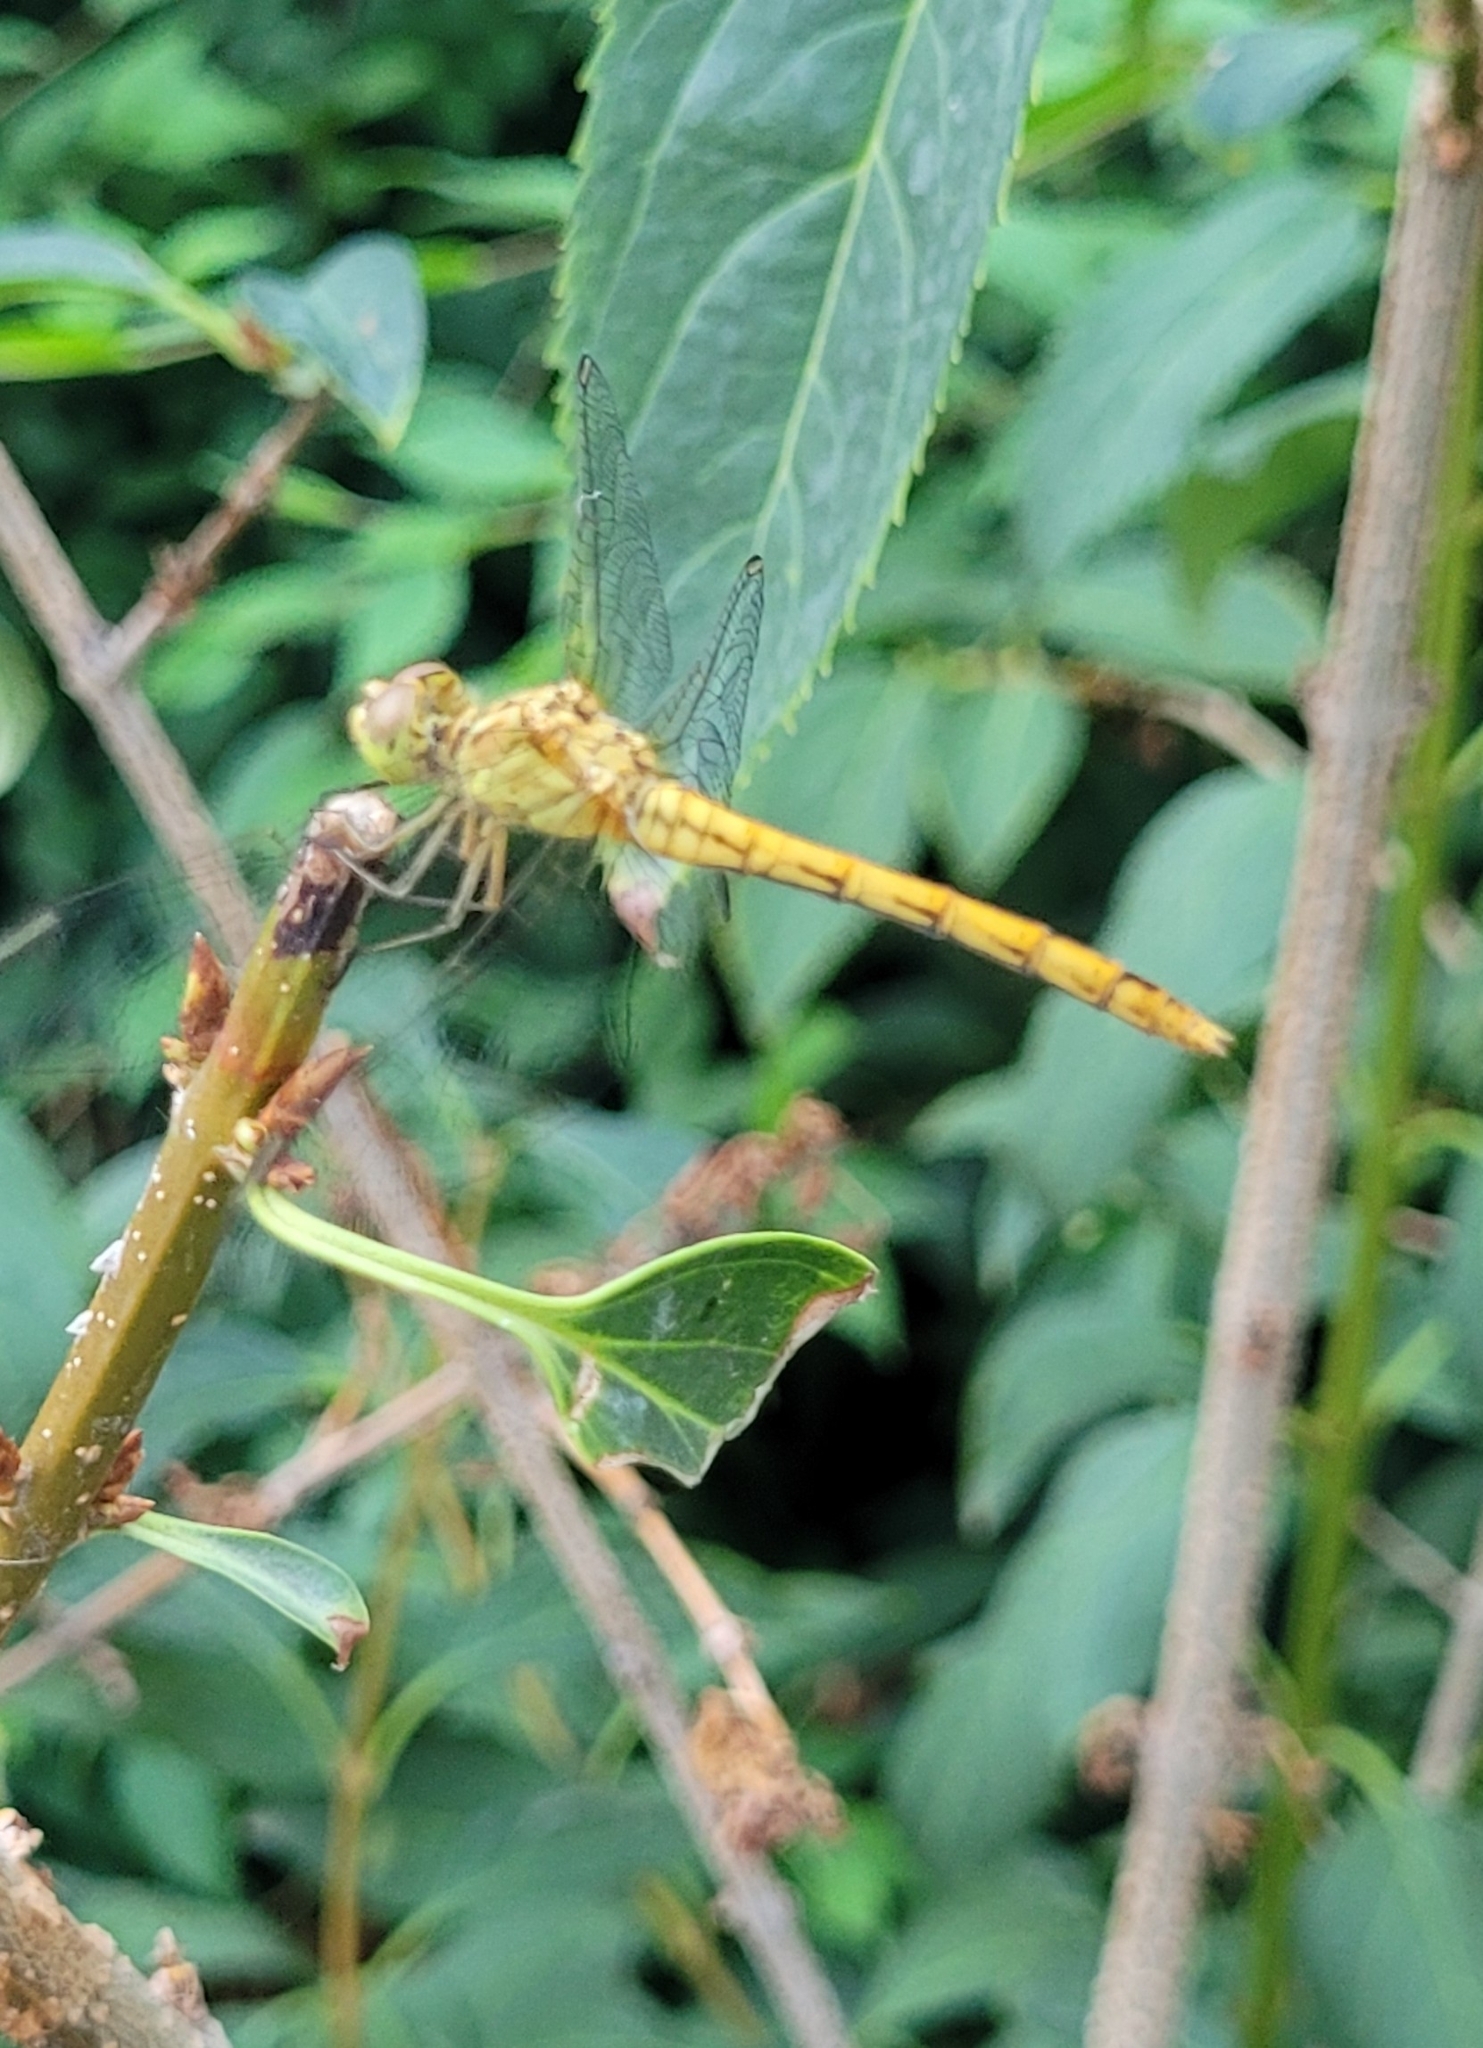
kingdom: Animalia
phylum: Arthropoda
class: Insecta
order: Odonata
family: Libellulidae
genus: Sympetrum
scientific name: Sympetrum meridionale
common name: Southern darter
